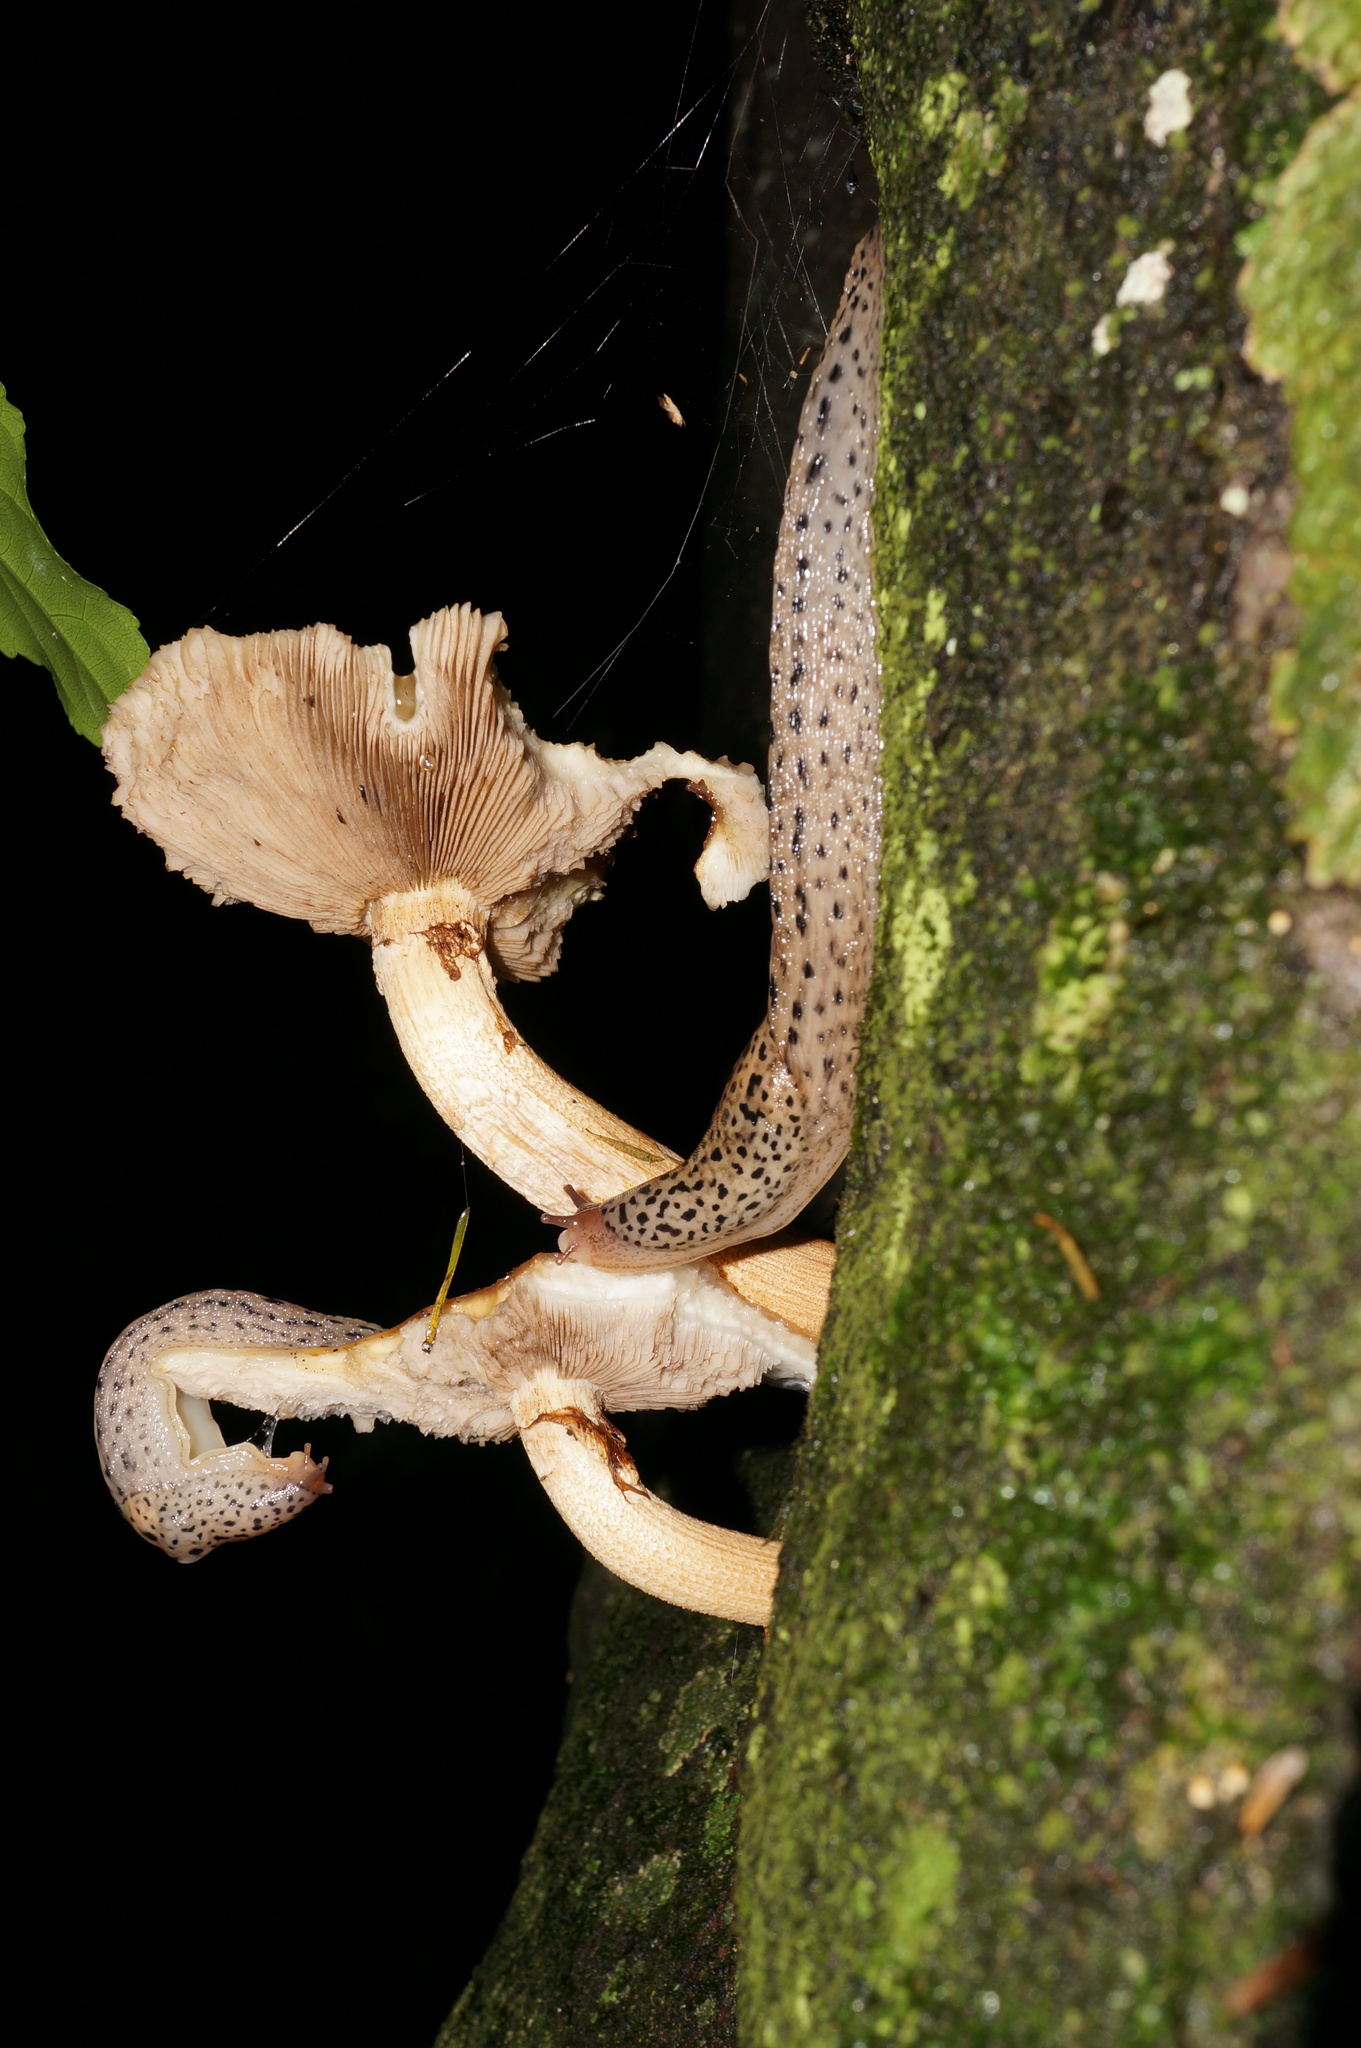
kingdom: Animalia
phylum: Mollusca
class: Gastropoda
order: Stylommatophora
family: Limacidae
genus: Limax
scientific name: Limax maximus
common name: Great grey slug
